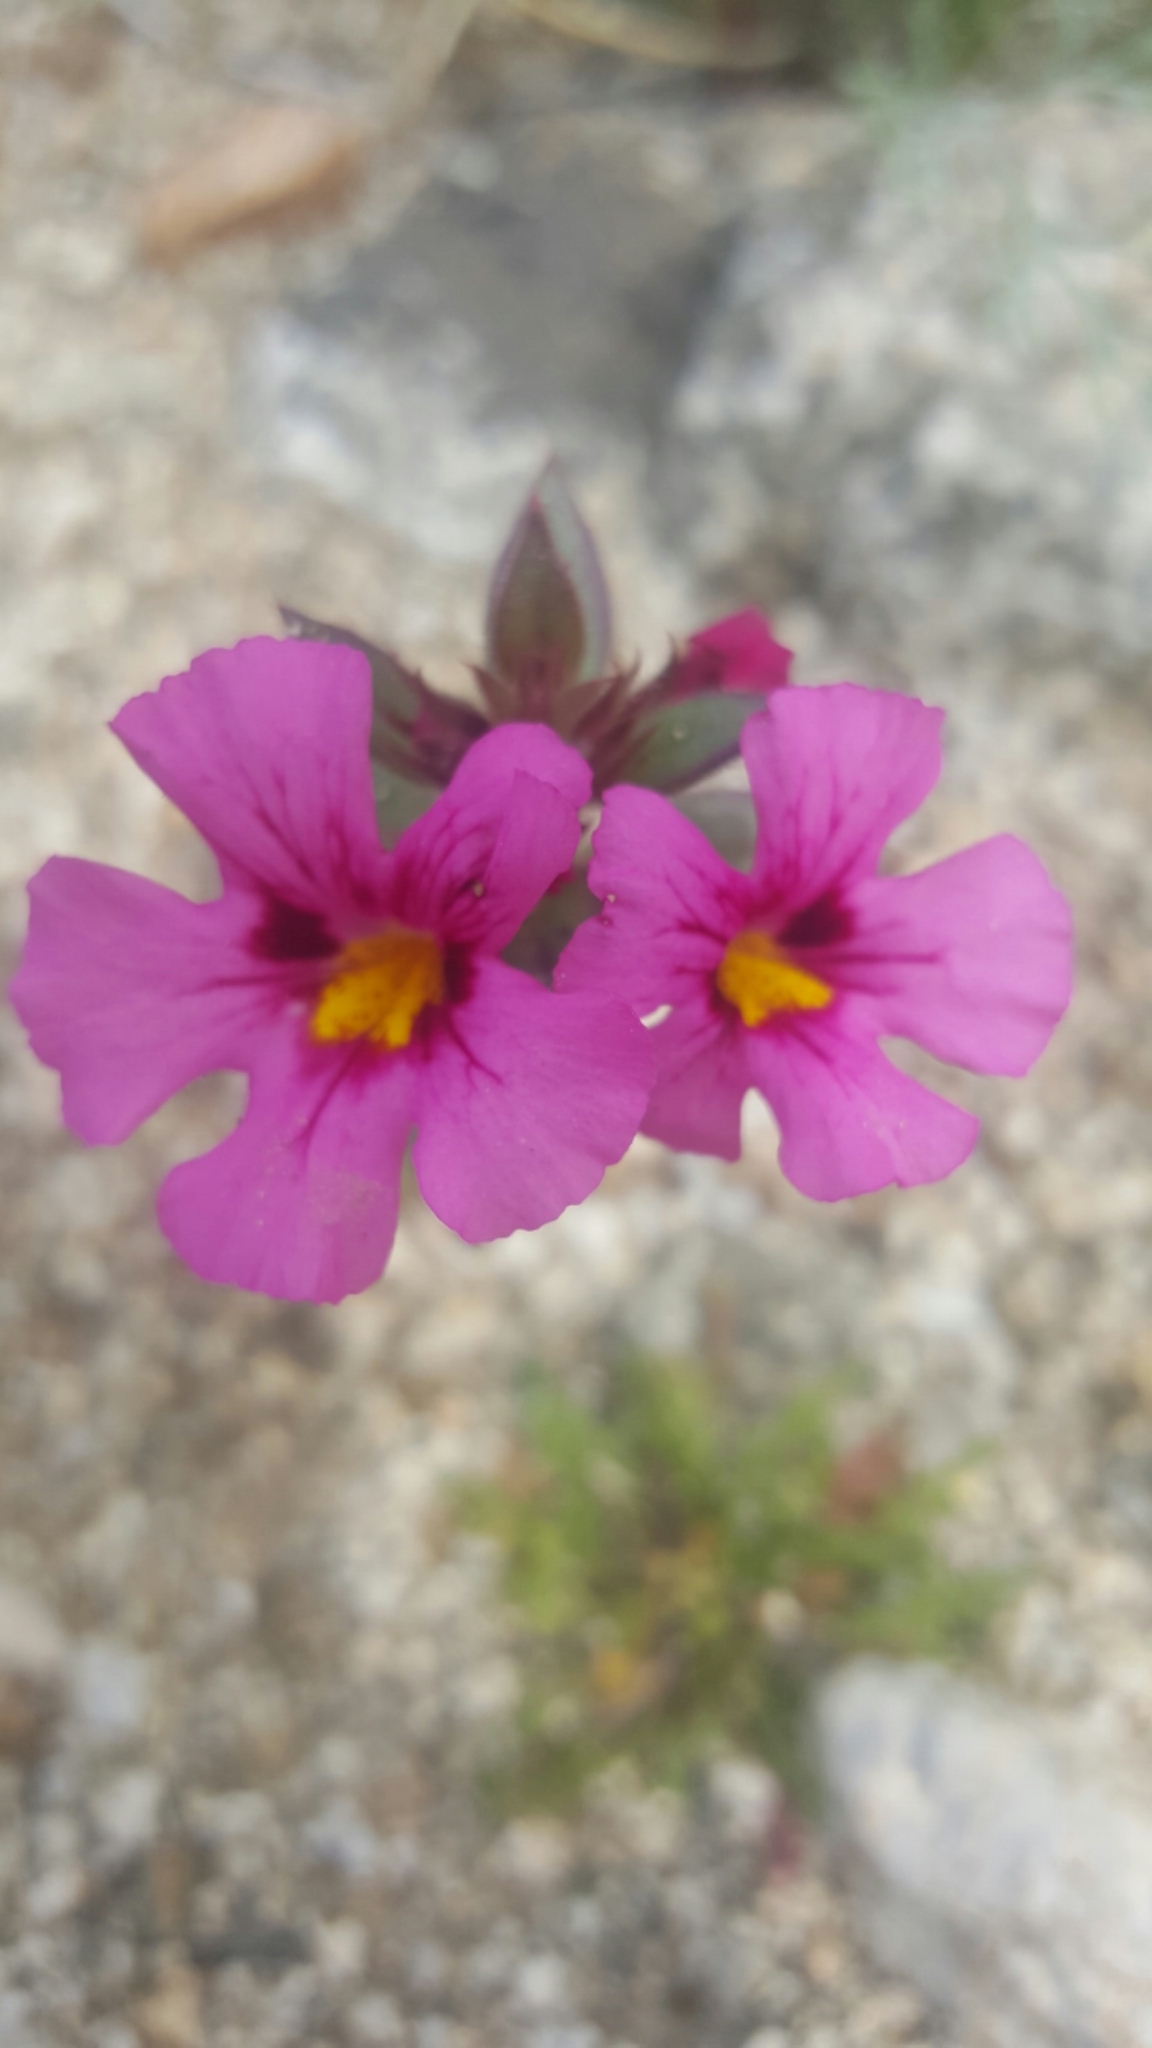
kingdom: Plantae
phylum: Tracheophyta
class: Magnoliopsida
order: Lamiales
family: Phrymaceae
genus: Diplacus
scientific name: Diplacus bigelovii
